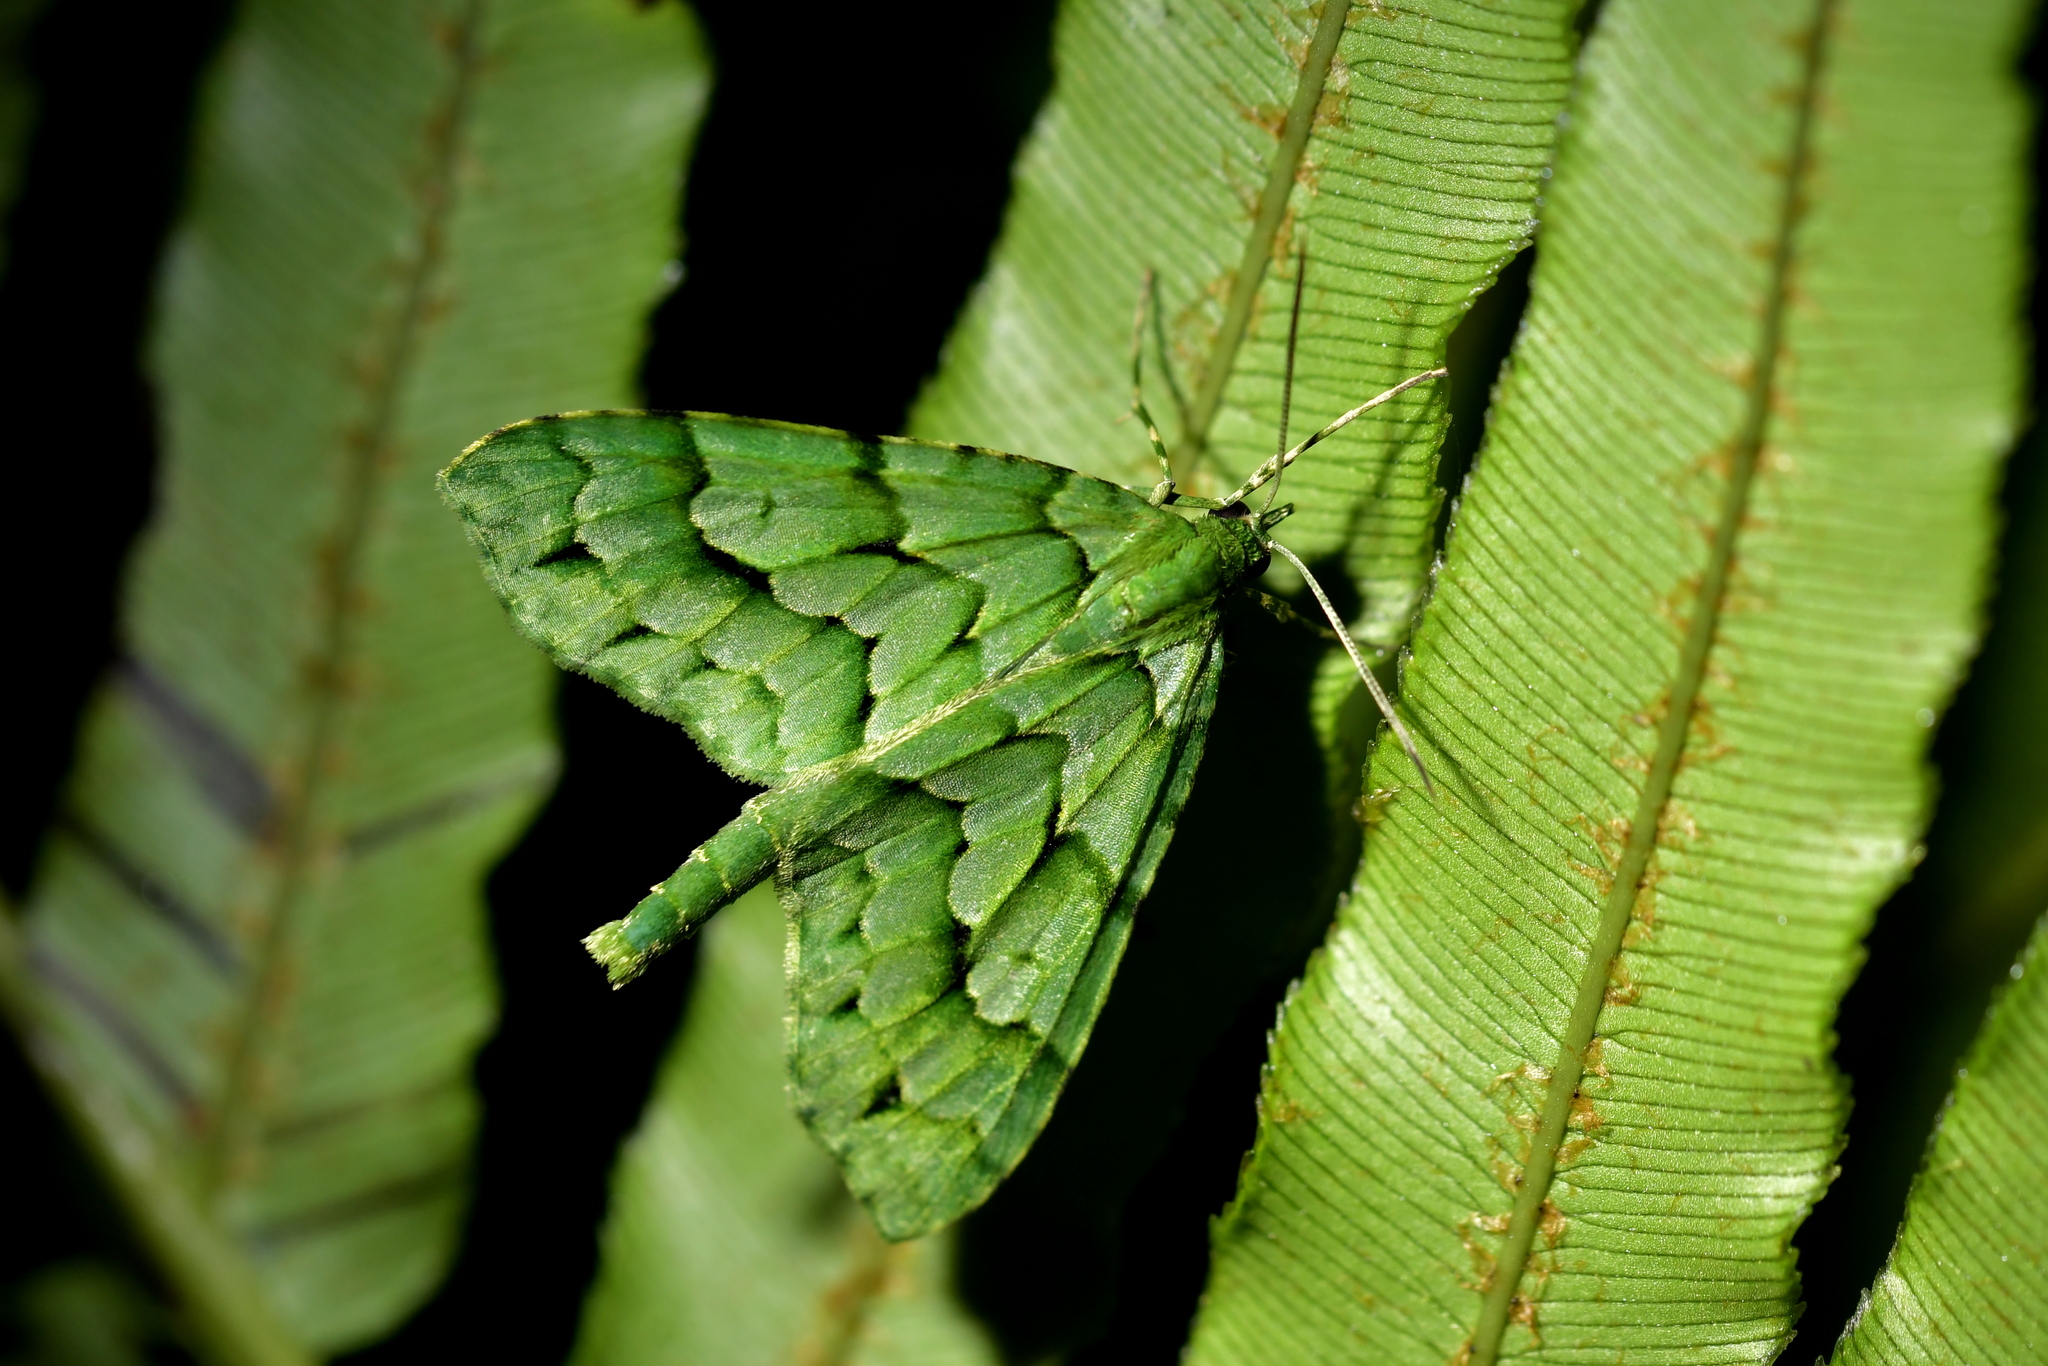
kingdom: Animalia
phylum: Arthropoda
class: Insecta
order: Lepidoptera
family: Geometridae
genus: Tatosoma
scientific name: Tatosoma lestevata
